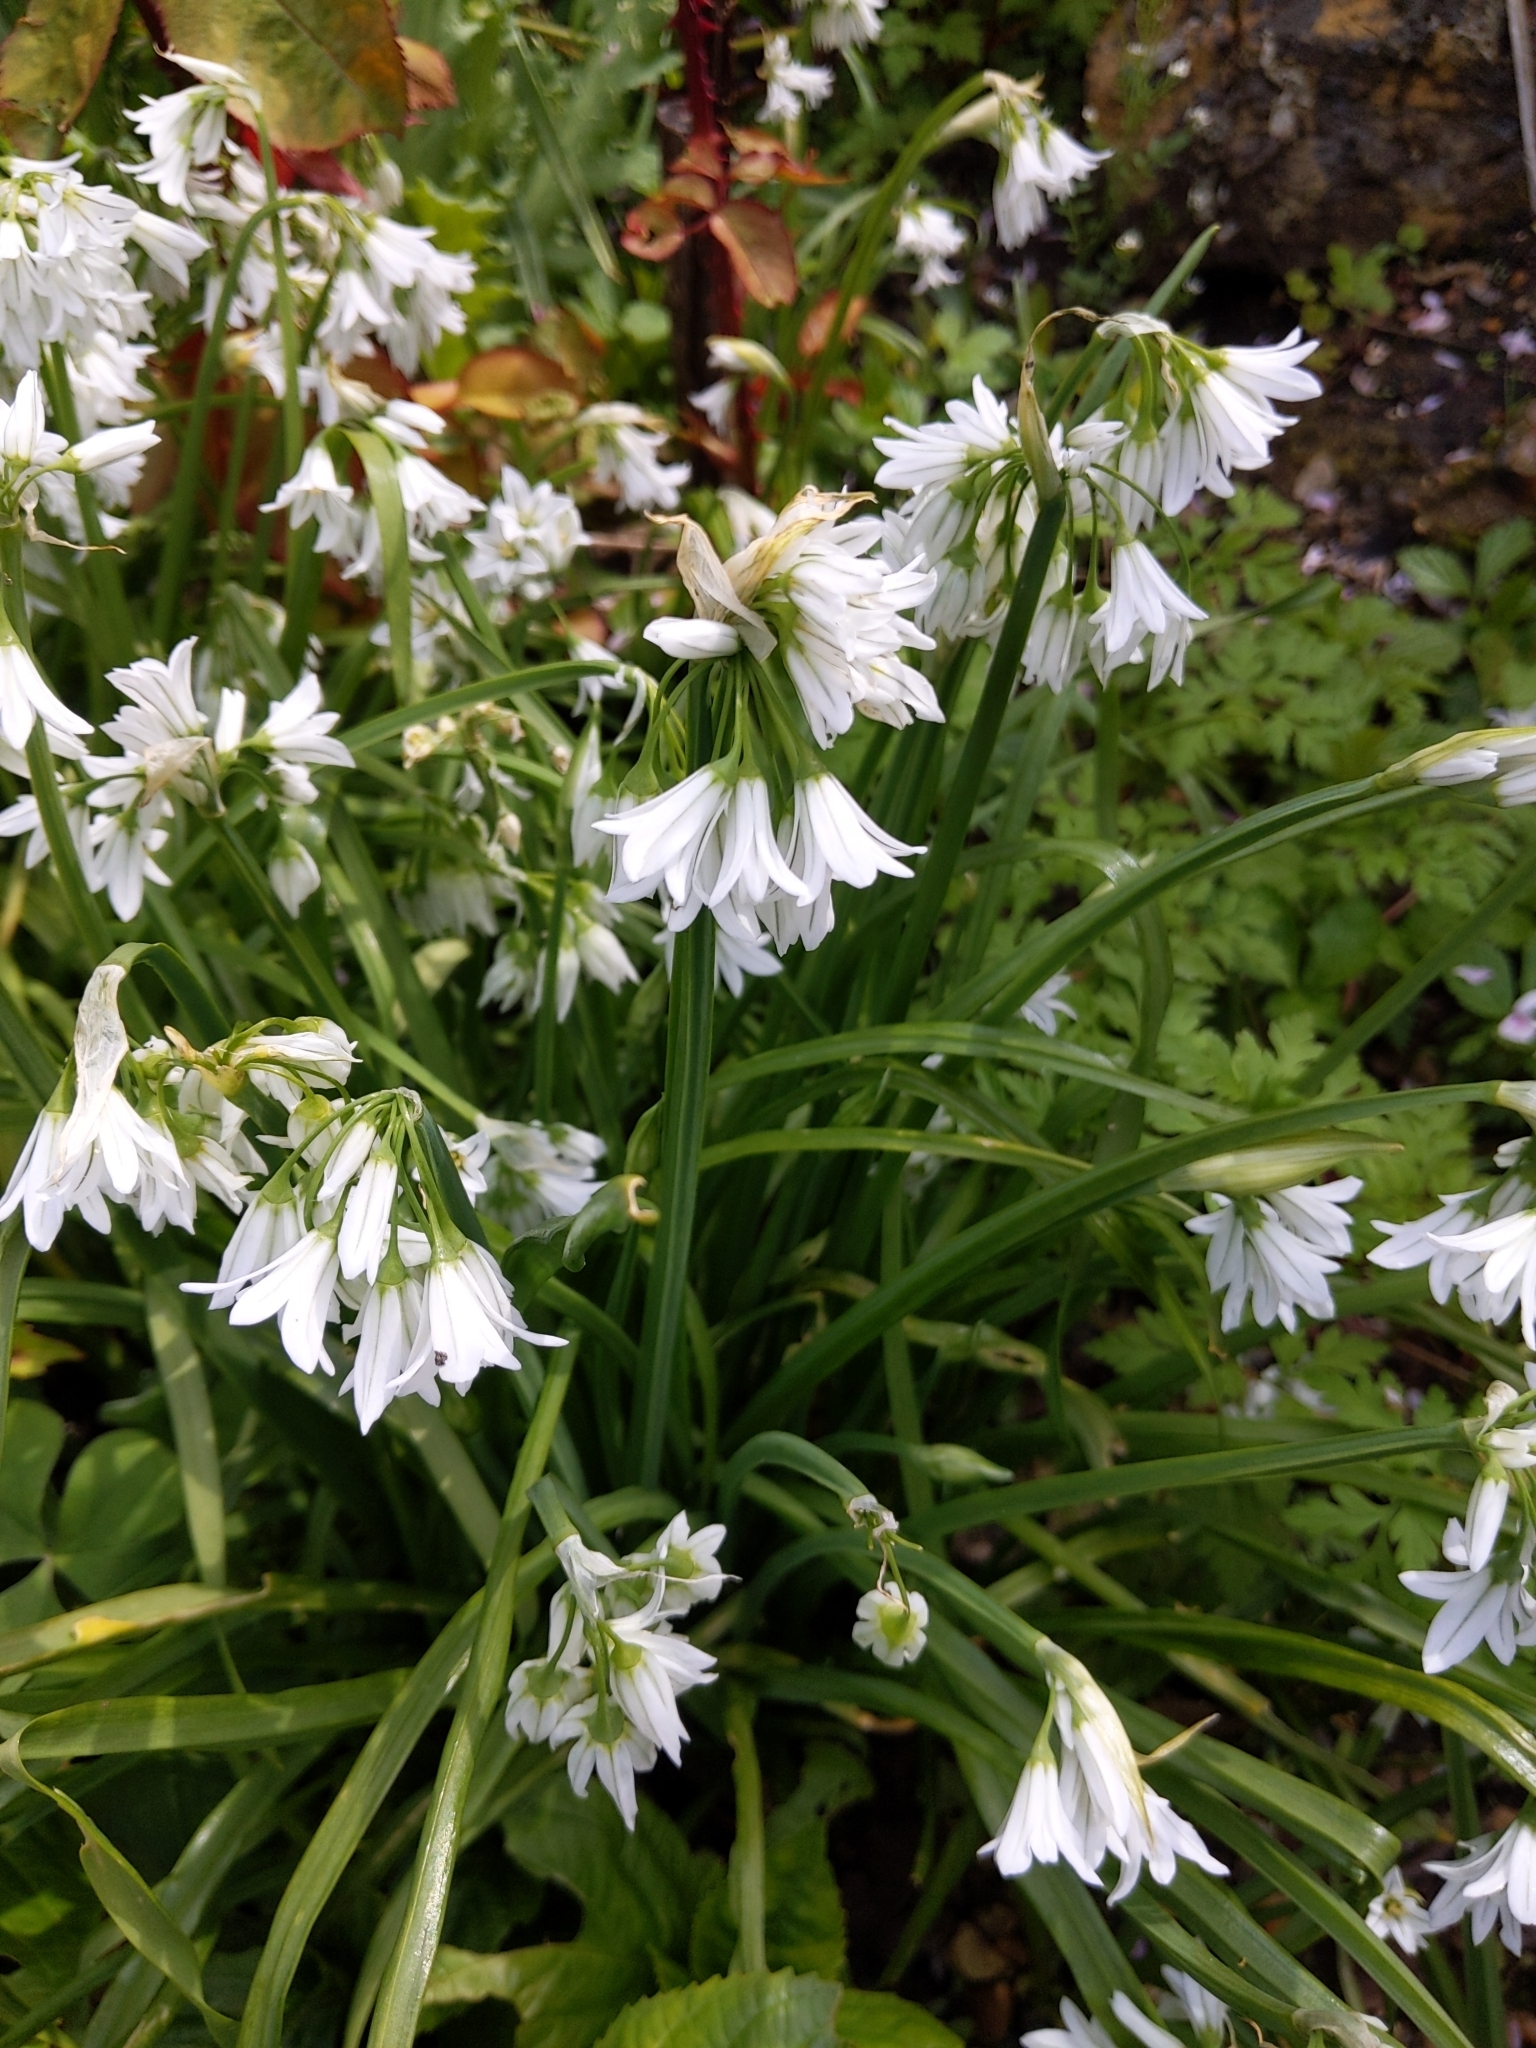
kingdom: Plantae
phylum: Tracheophyta
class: Liliopsida
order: Asparagales
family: Amaryllidaceae
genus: Allium
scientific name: Allium triquetrum
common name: Three-cornered garlic
